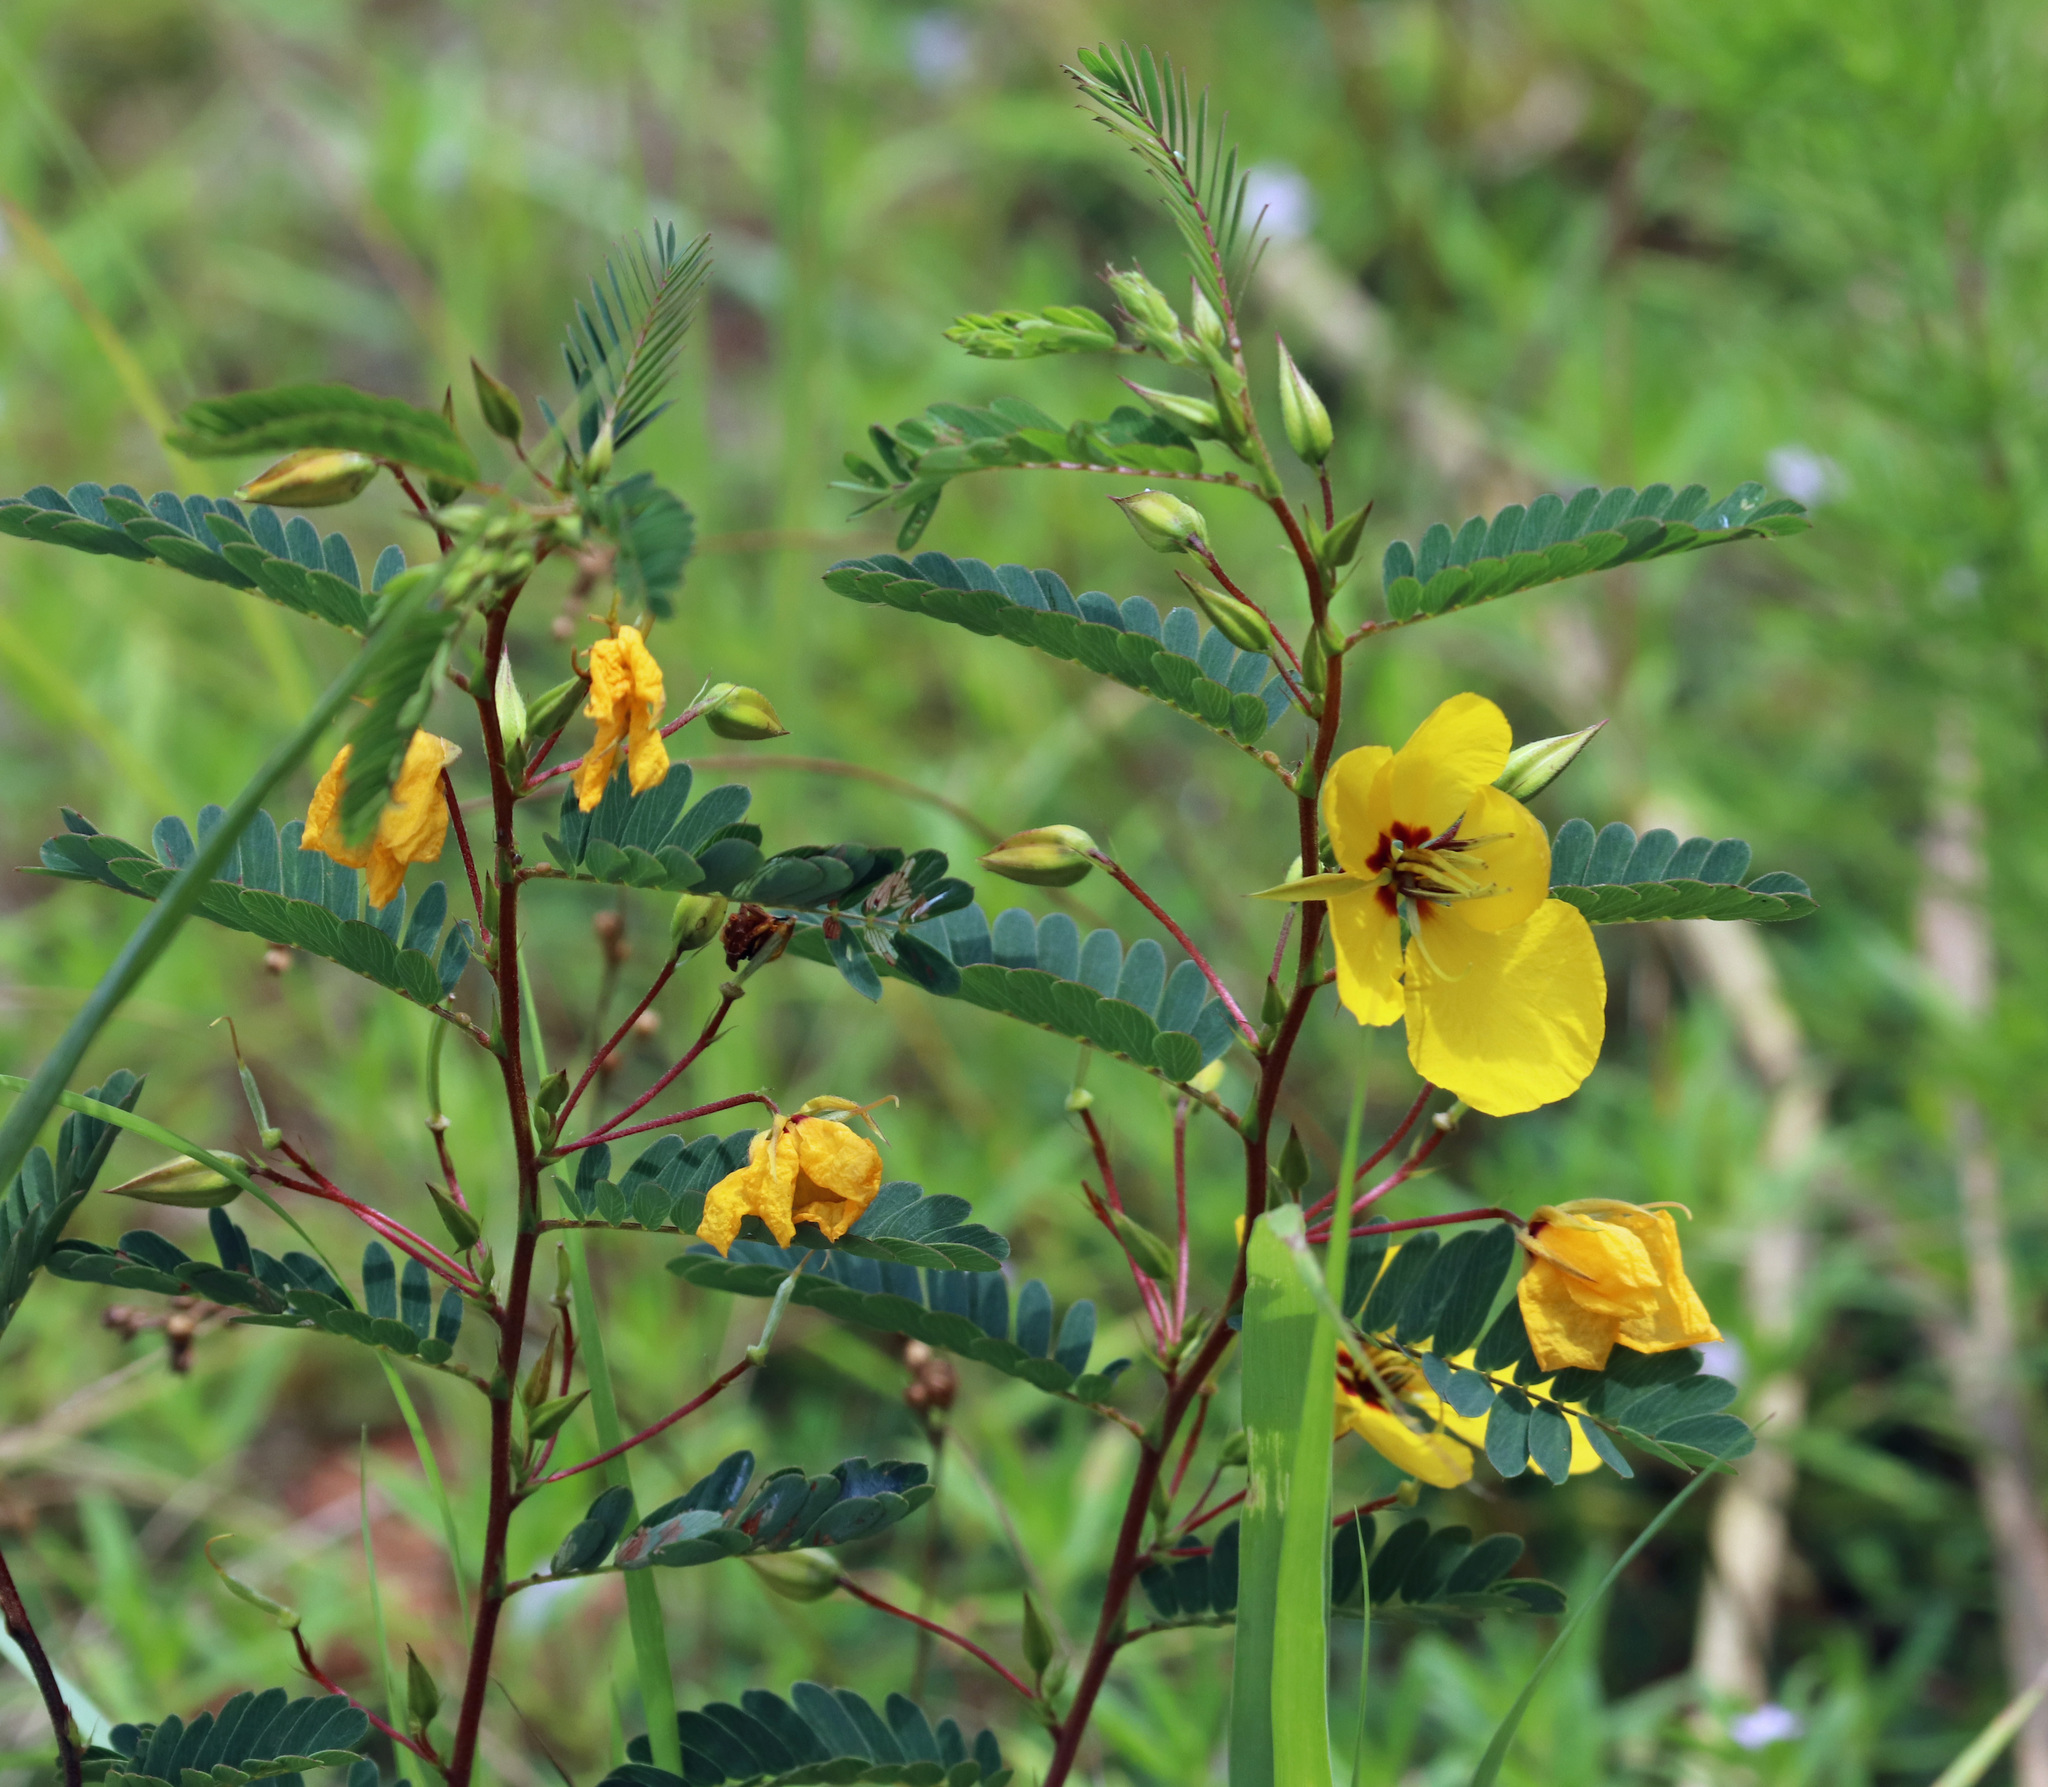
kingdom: Plantae
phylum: Tracheophyta
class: Magnoliopsida
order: Fabales
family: Fabaceae
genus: Chamaecrista
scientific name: Chamaecrista fasciculata
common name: Golden cassia
